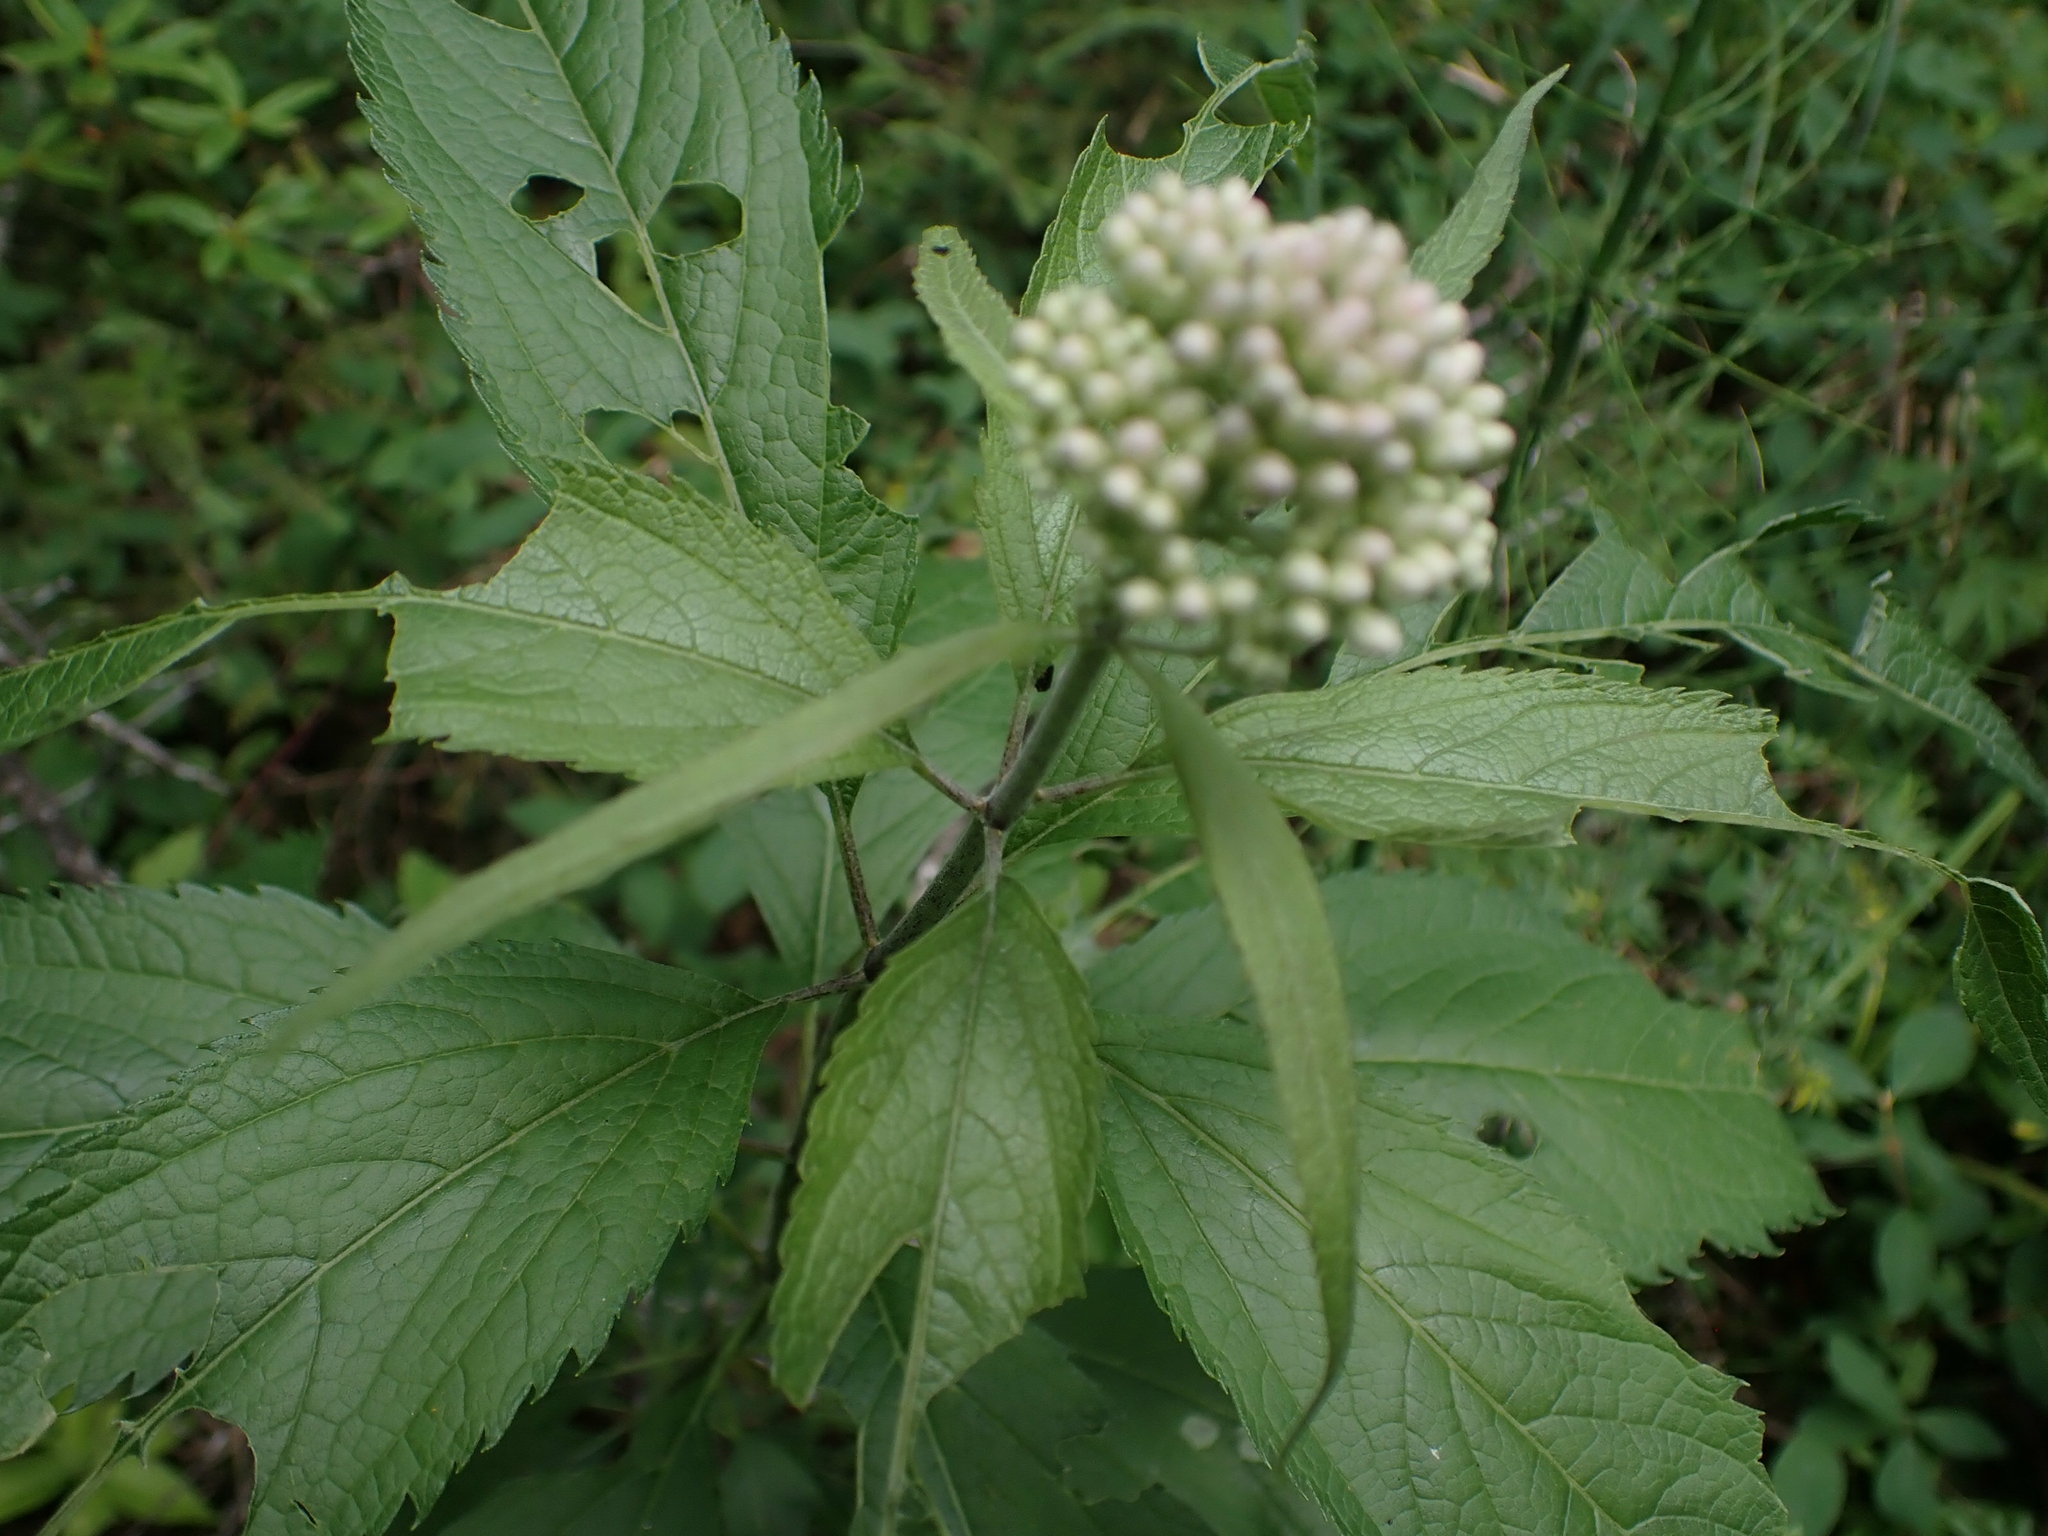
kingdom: Plantae
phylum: Tracheophyta
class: Magnoliopsida
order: Asterales
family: Asteraceae
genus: Eutrochium
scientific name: Eutrochium maculatum
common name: Spotted joe pye weed
